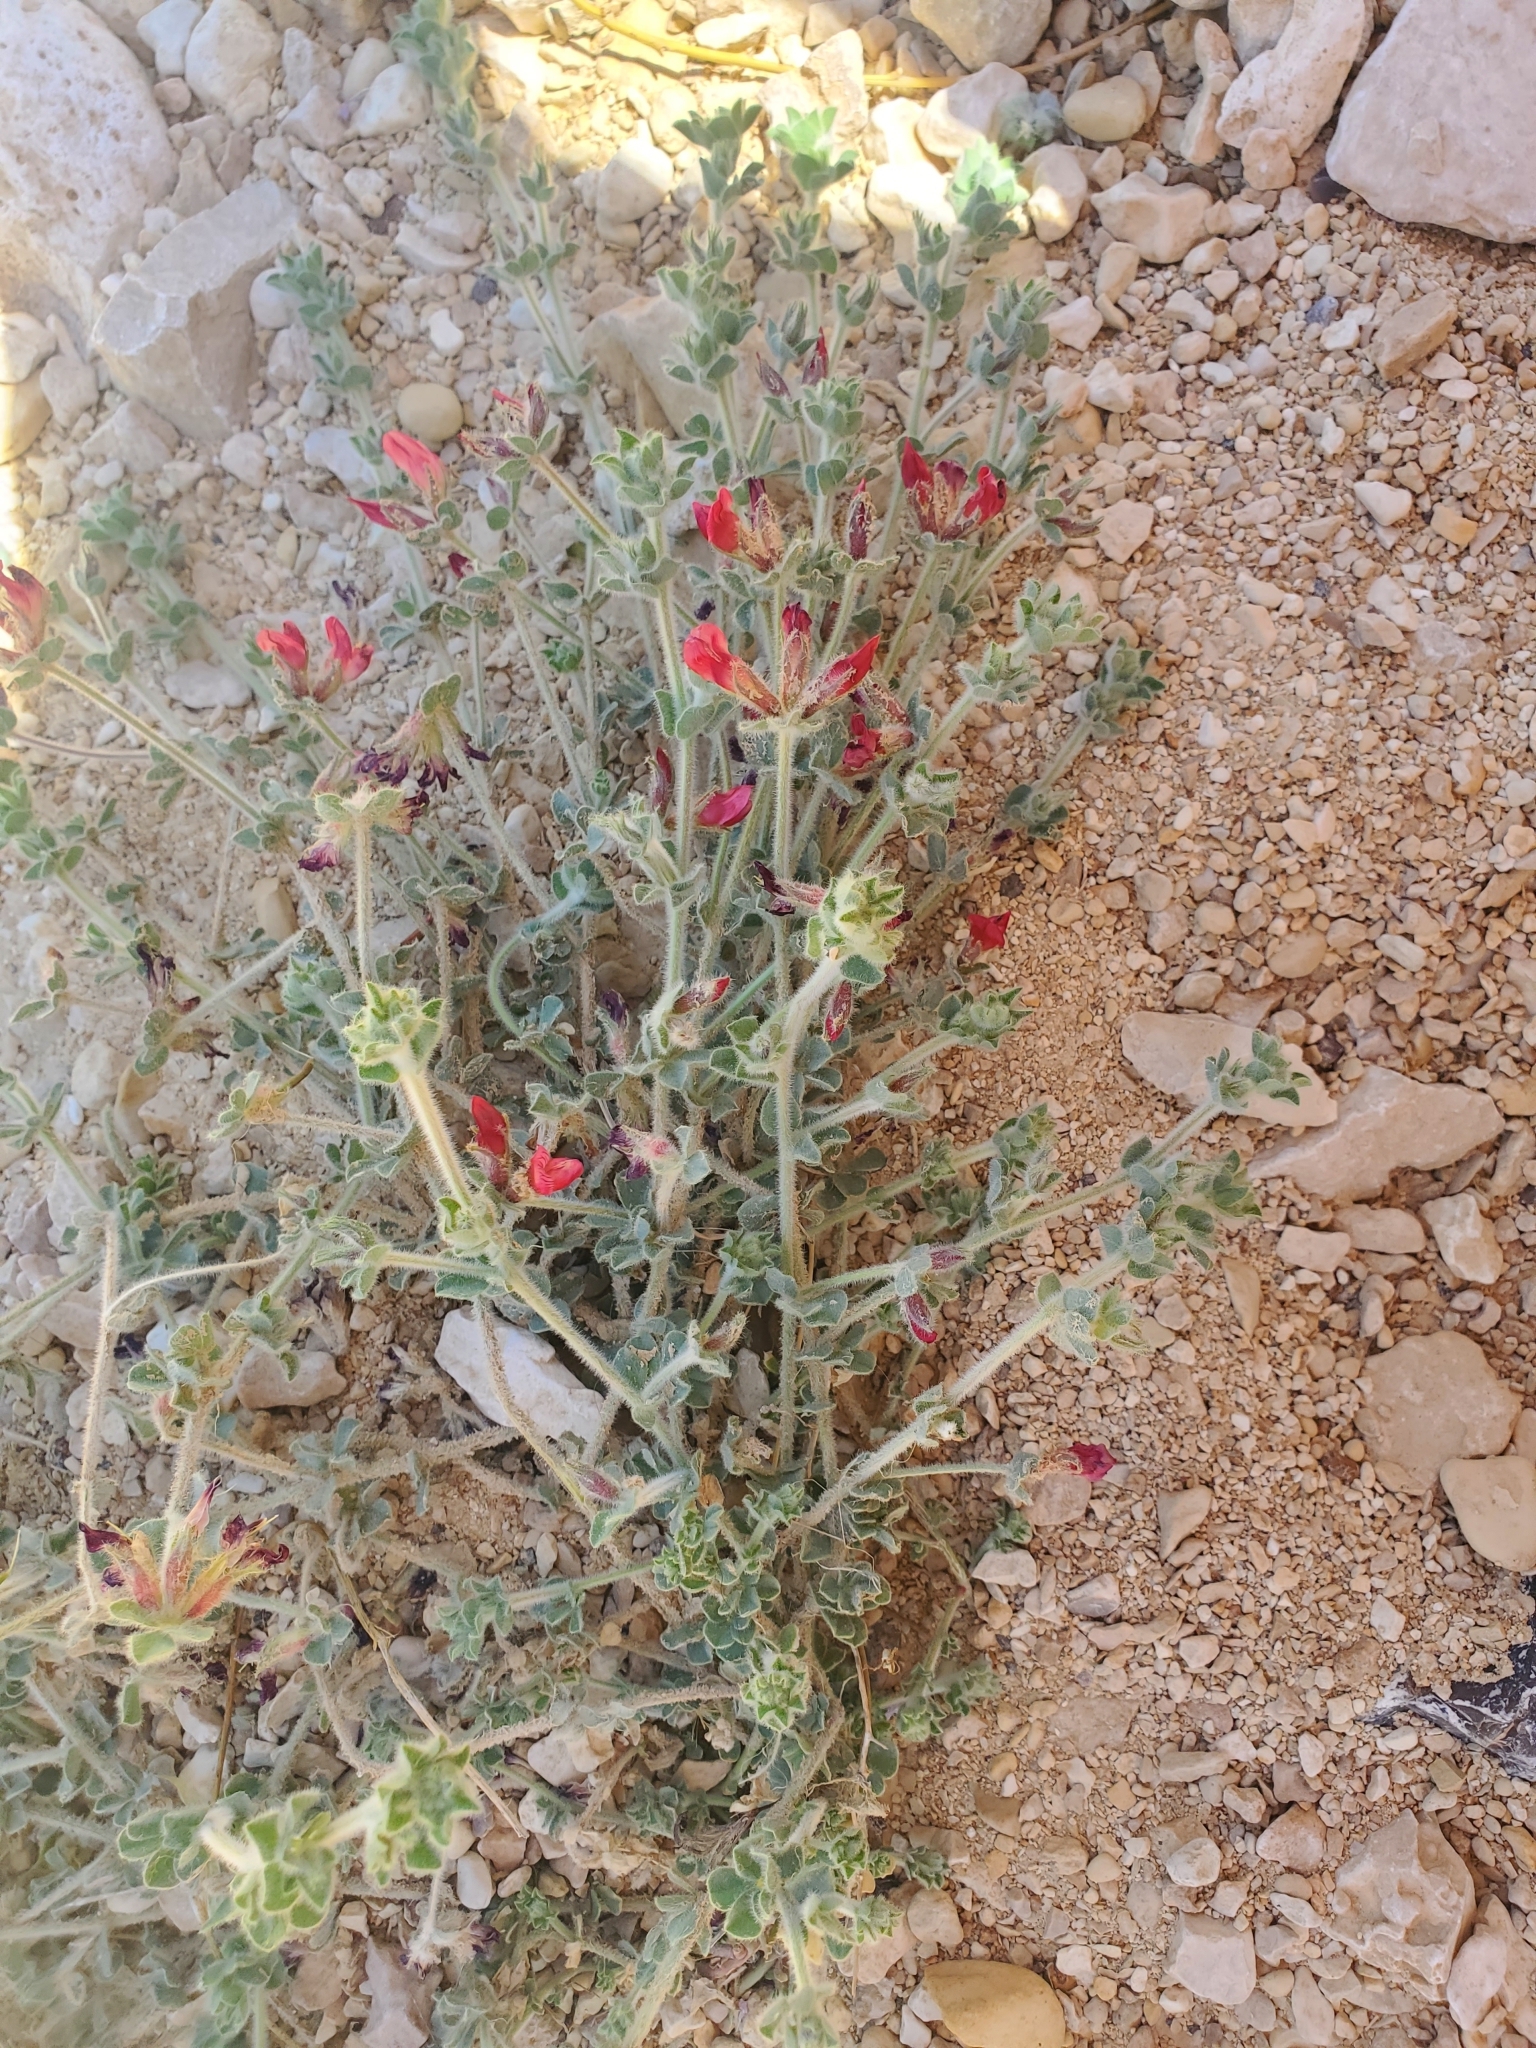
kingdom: Plantae
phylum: Tracheophyta
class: Magnoliopsida
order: Fabales
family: Fabaceae
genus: Lotus
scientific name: Lotus lanuginosus
